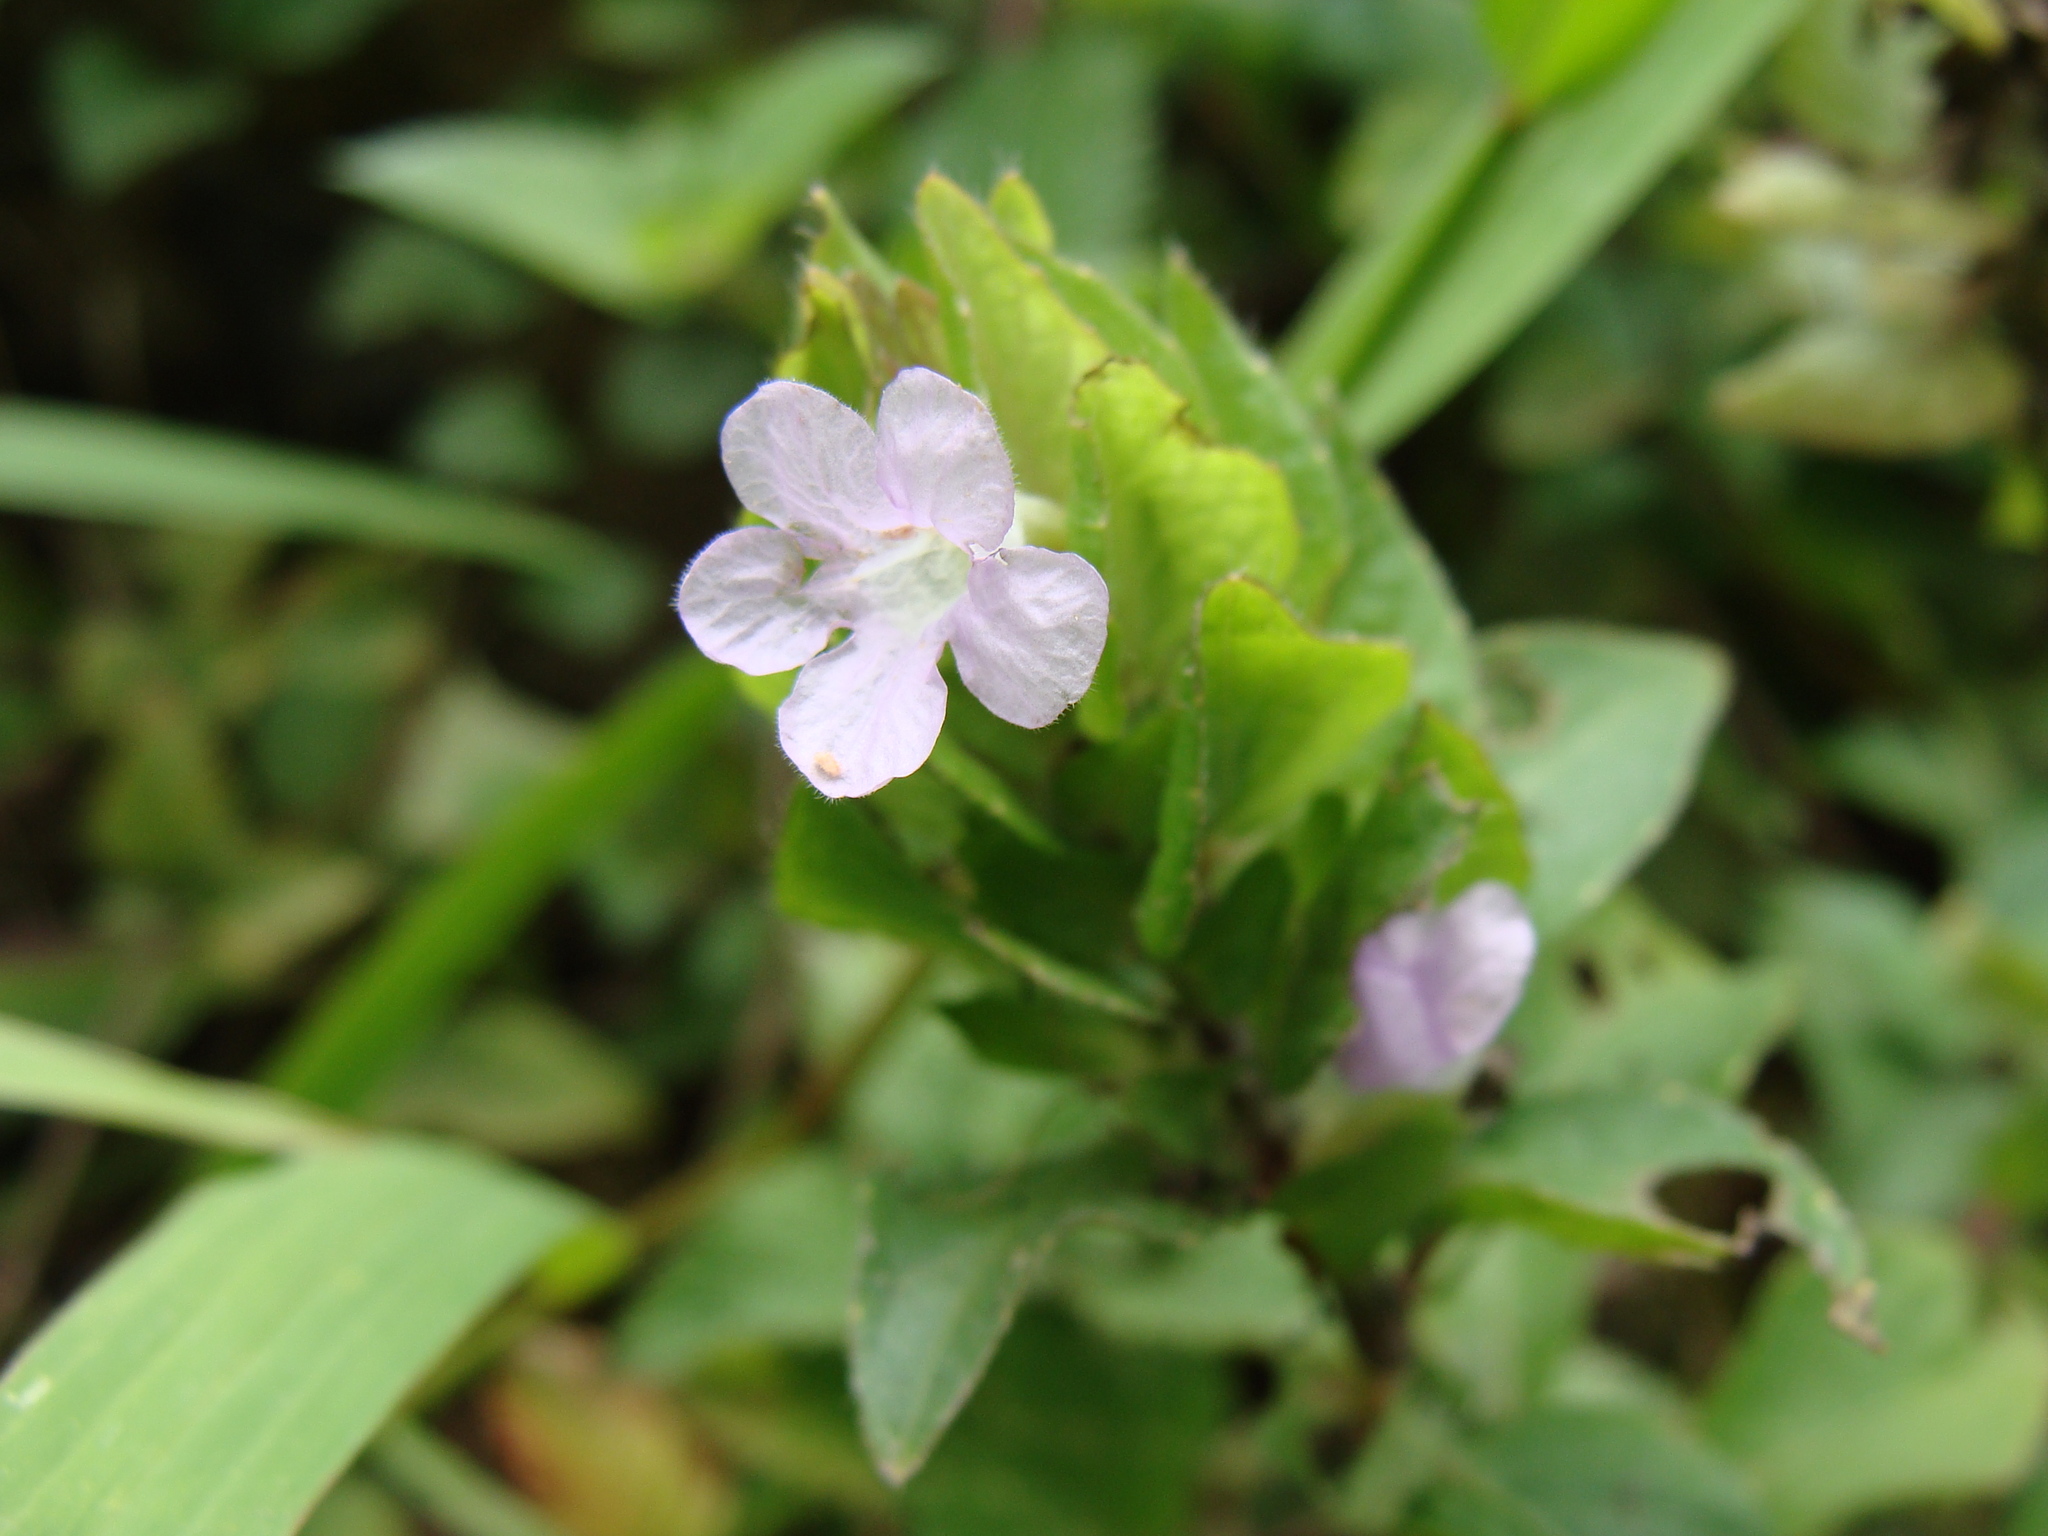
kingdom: Plantae
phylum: Tracheophyta
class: Magnoliopsida
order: Lamiales
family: Acanthaceae
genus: Ruellia
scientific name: Ruellia blechum
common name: Browne's blechum
